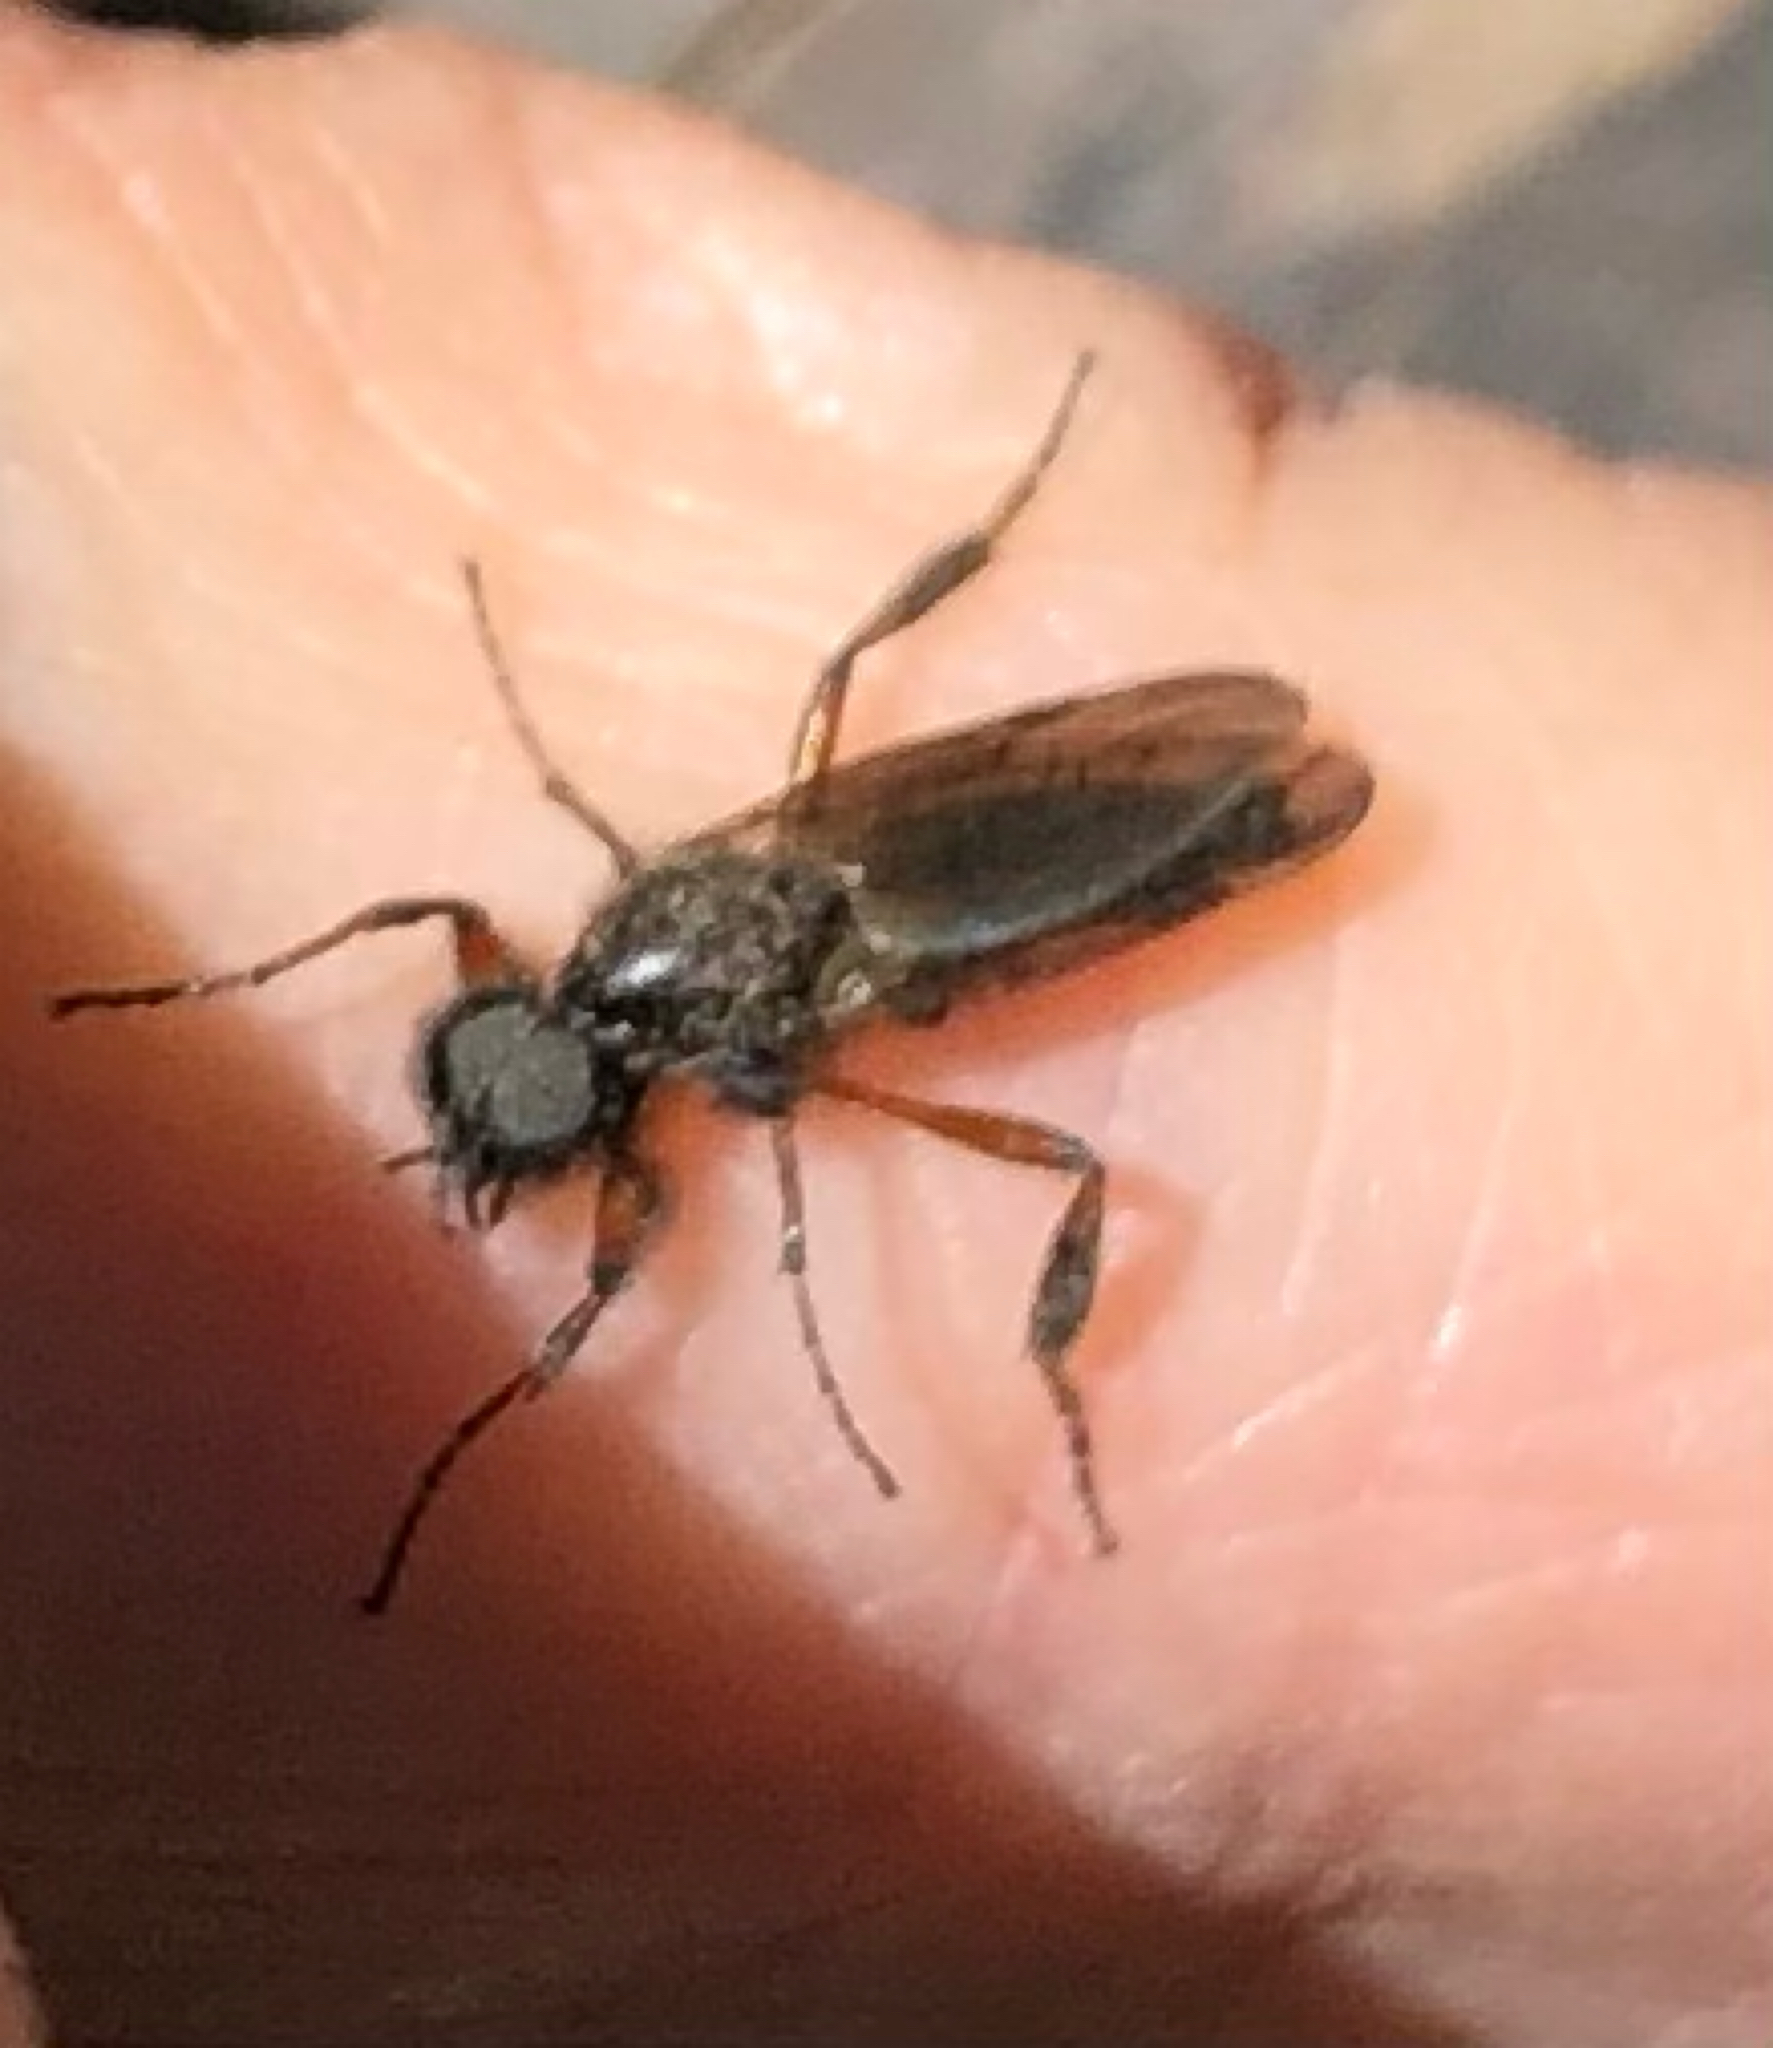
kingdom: Animalia
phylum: Arthropoda
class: Insecta
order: Diptera
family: Bibionidae
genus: Bibio
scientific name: Bibio
